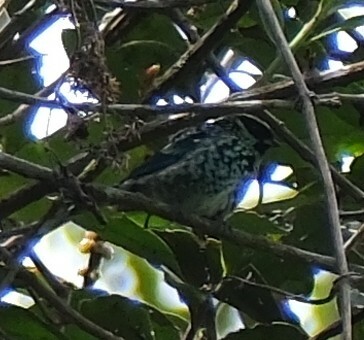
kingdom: Animalia
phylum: Chordata
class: Aves
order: Passeriformes
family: Thraupidae
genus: Tangara
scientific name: Tangara nigroviridis
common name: Beryl-spangled tanager
